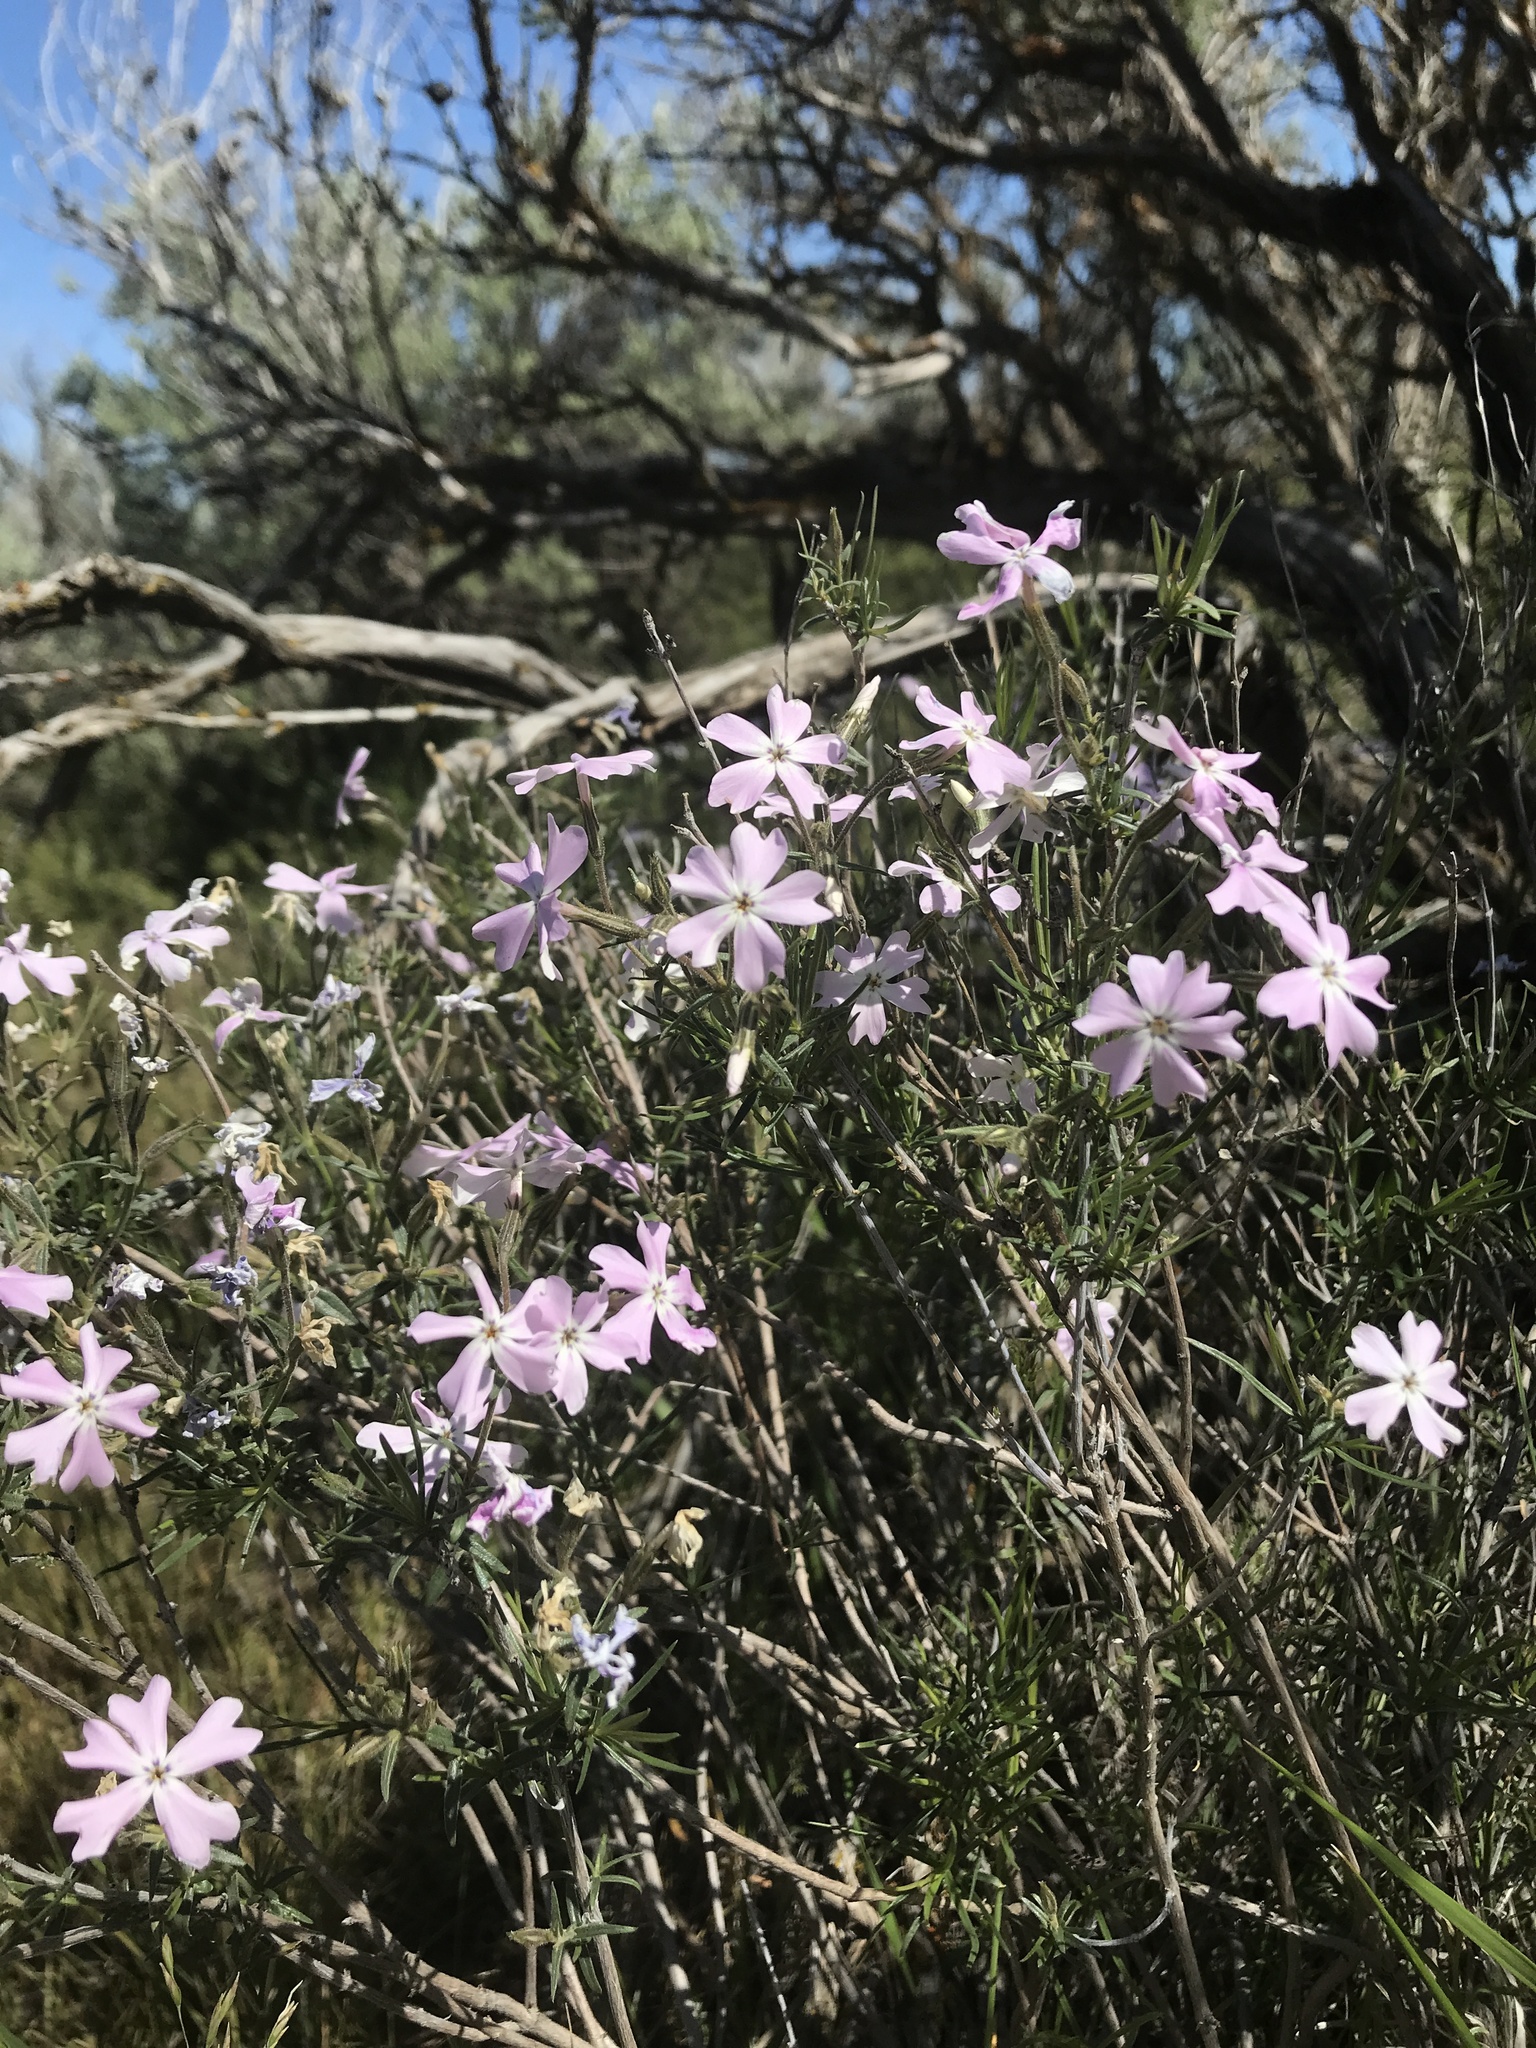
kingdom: Plantae
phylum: Tracheophyta
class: Magnoliopsida
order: Ericales
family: Polemoniaceae
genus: Phlox
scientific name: Phlox speciosa
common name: Bush phlox
